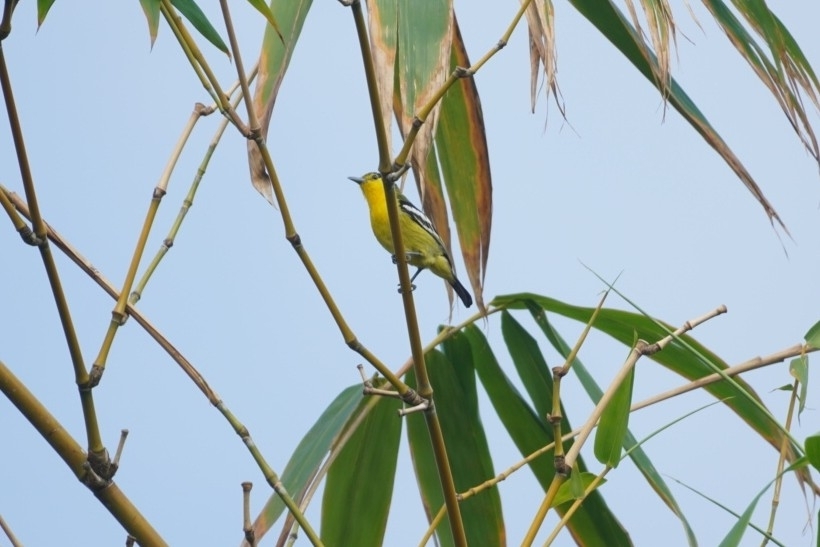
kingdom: Animalia
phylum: Chordata
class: Aves
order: Passeriformes
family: Aegithinidae
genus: Aegithina
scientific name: Aegithina tiphia
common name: Common iora
